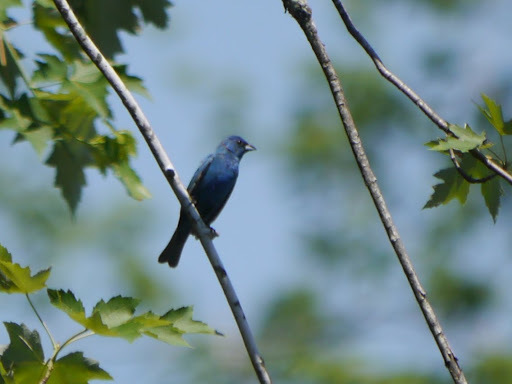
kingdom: Animalia
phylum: Chordata
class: Aves
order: Passeriformes
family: Cardinalidae
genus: Passerina
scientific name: Passerina cyanea
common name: Indigo bunting
